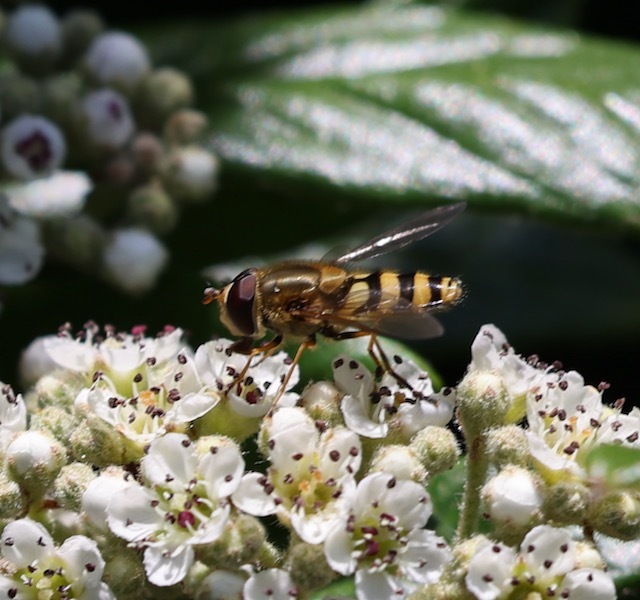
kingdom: Animalia
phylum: Arthropoda
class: Insecta
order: Diptera
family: Syrphidae
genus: Syrphus
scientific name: Syrphus
